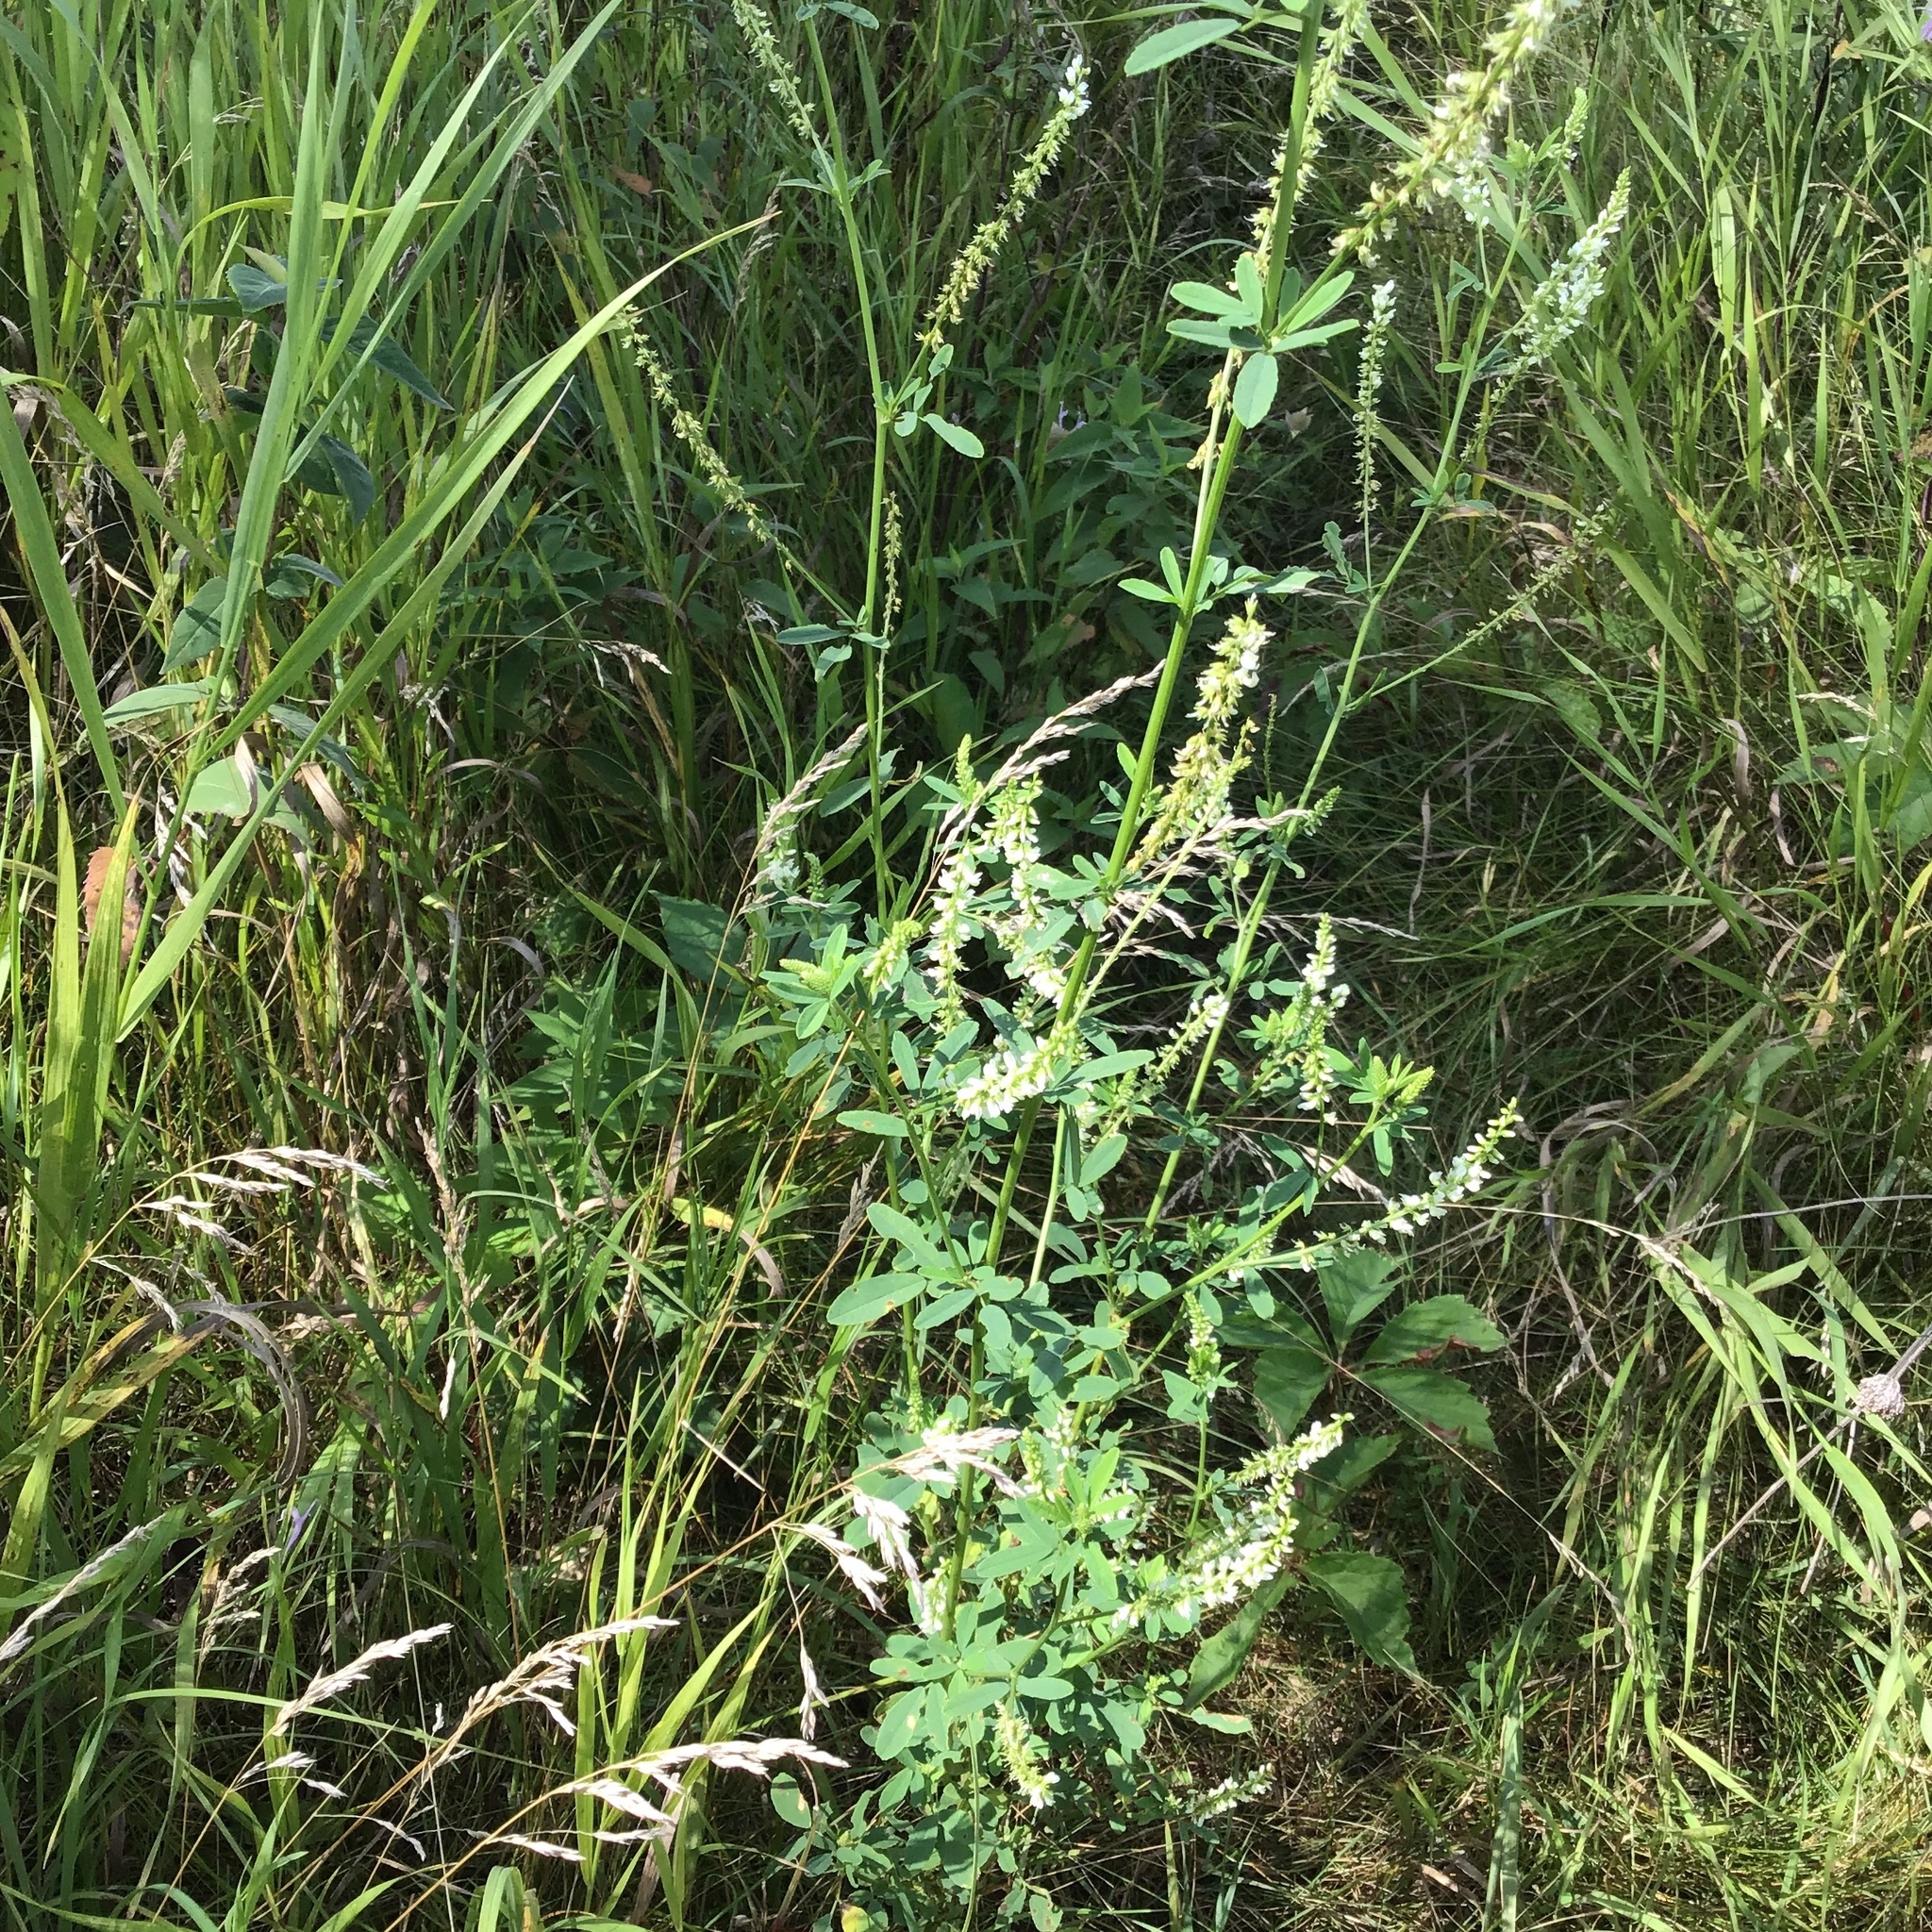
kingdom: Plantae
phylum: Tracheophyta
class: Magnoliopsida
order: Fabales
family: Fabaceae
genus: Melilotus
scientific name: Melilotus albus
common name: White melilot
